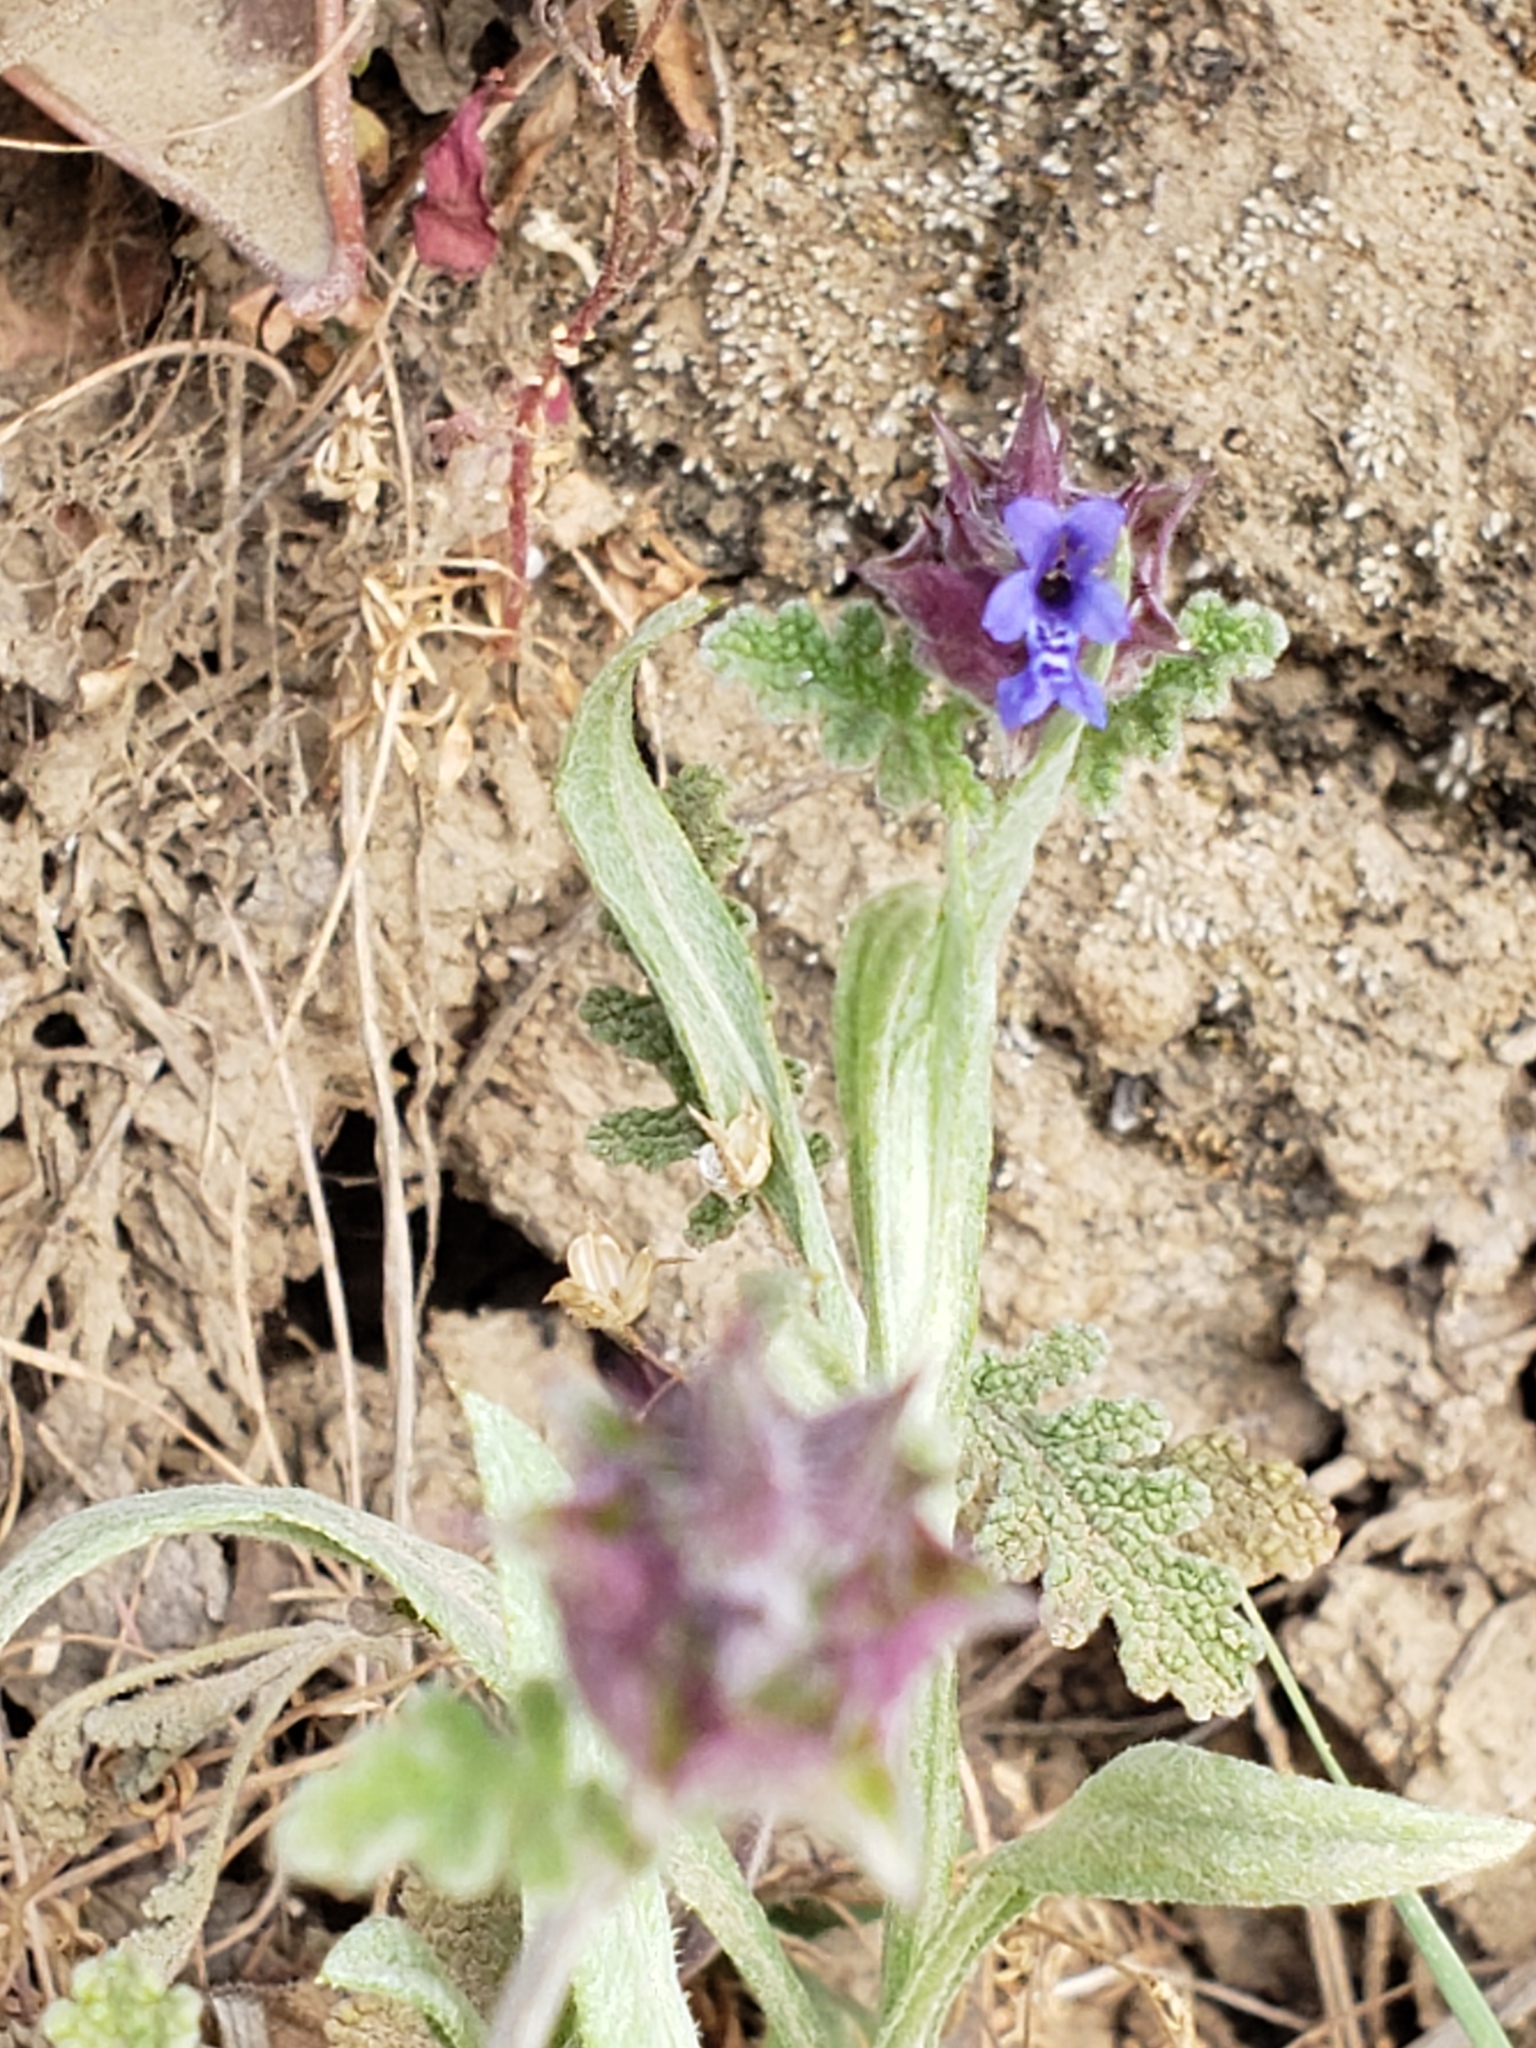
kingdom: Plantae
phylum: Tracheophyta
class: Magnoliopsida
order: Lamiales
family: Lamiaceae
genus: Salvia
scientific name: Salvia columbariae
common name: Chia
